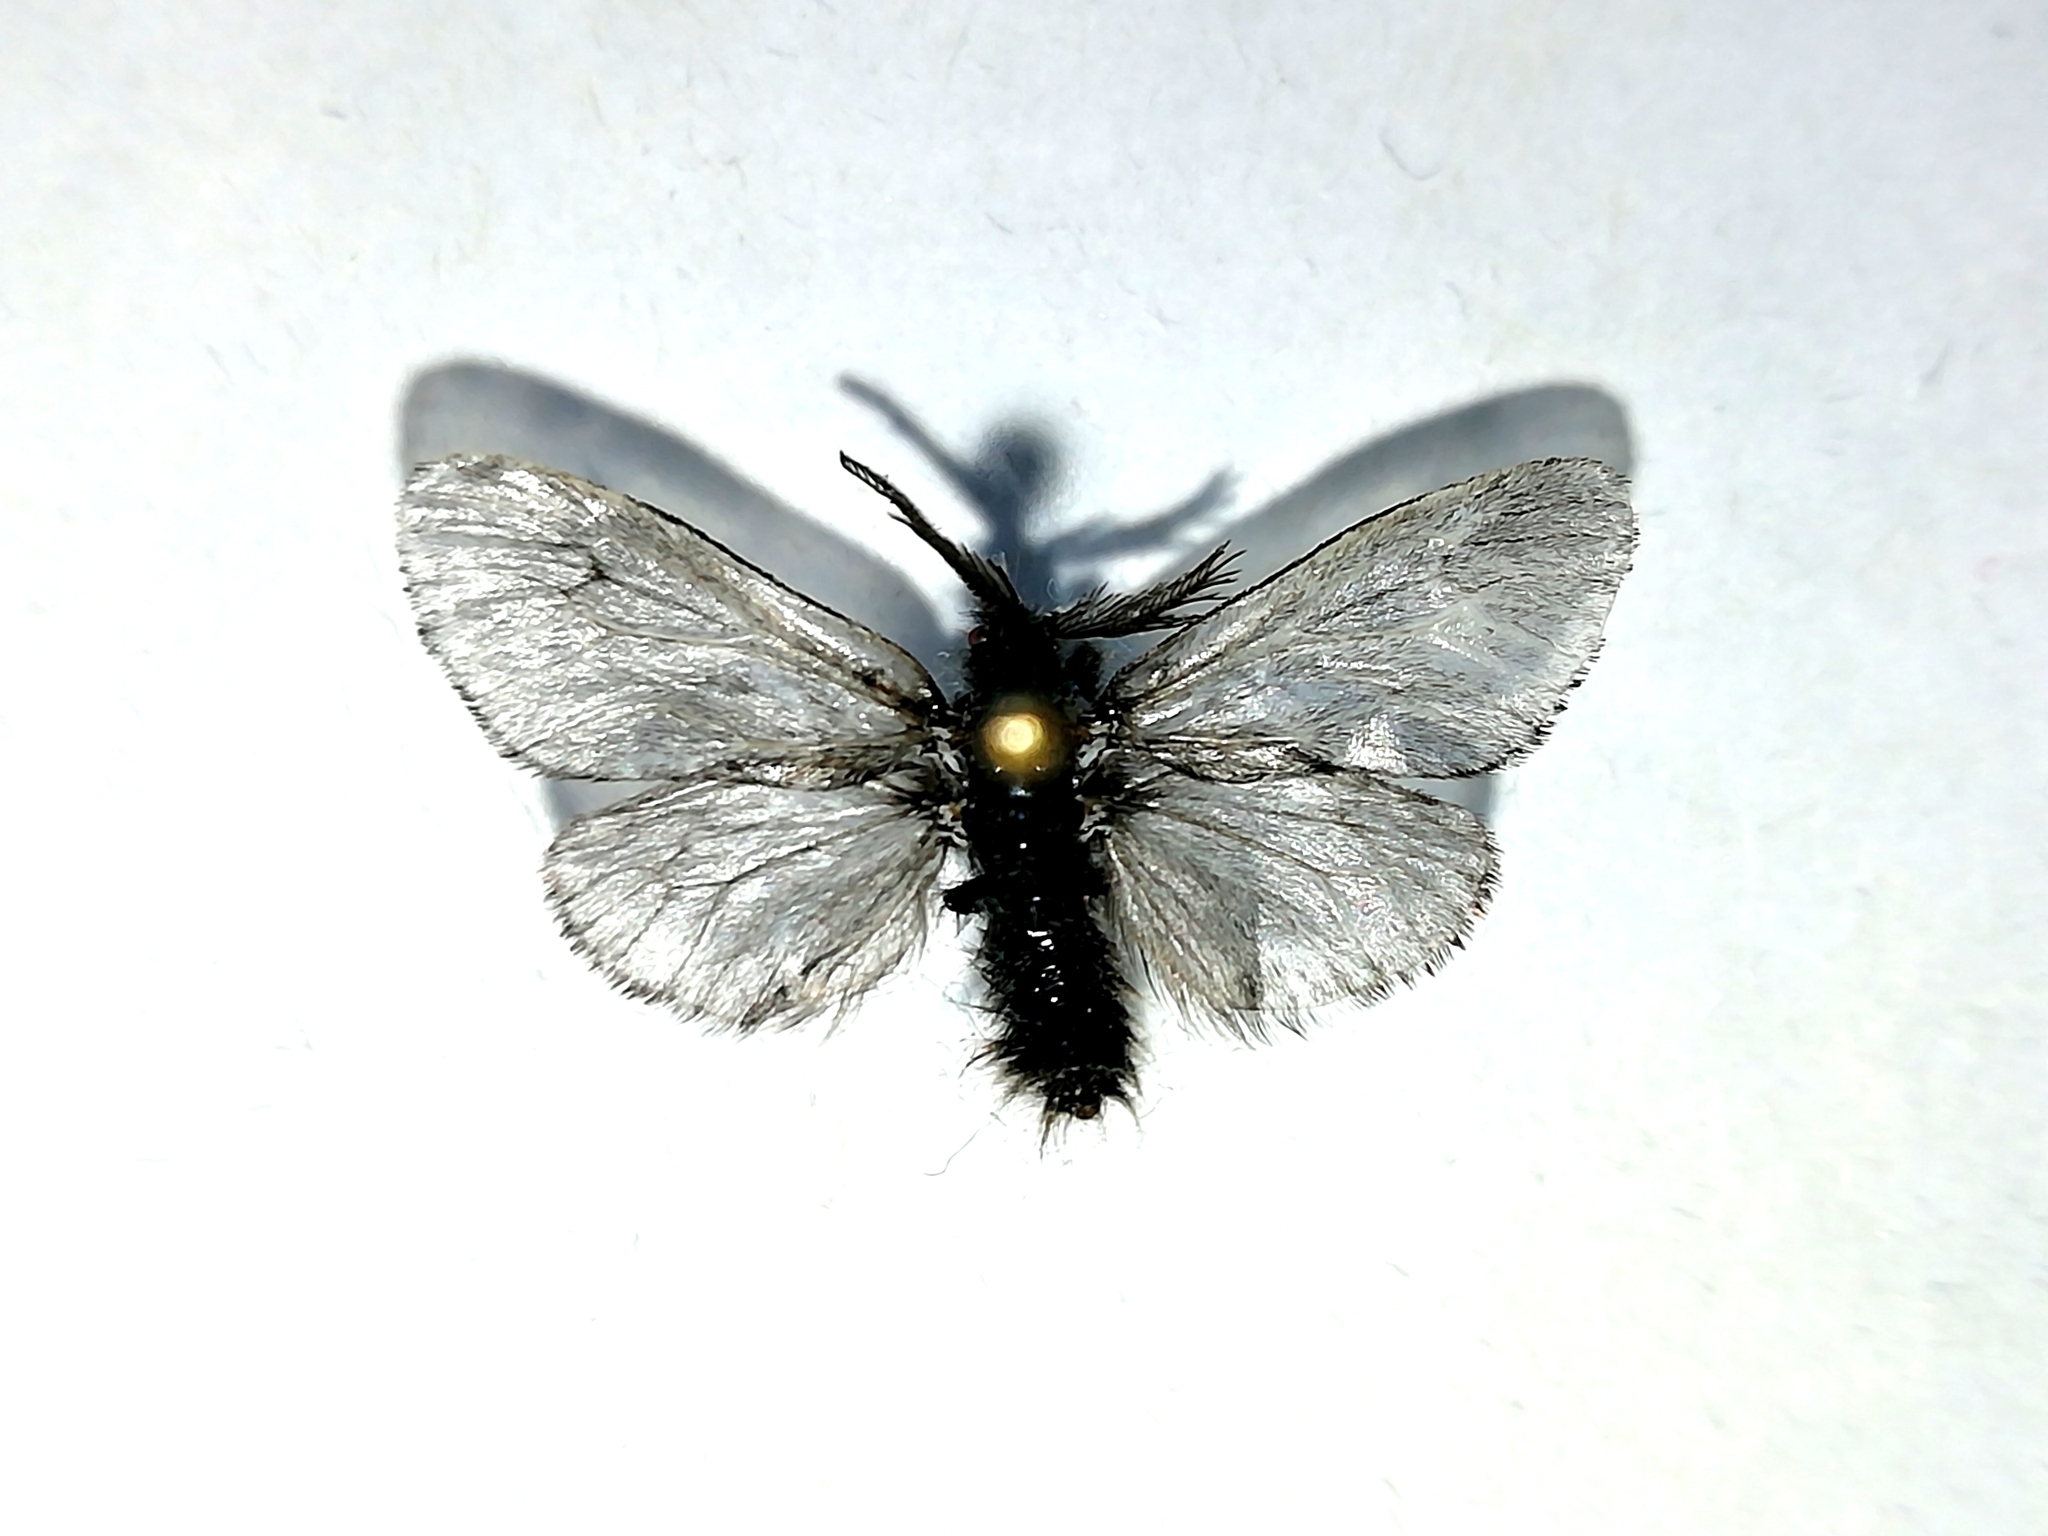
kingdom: Animalia
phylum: Arthropoda
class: Insecta
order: Lepidoptera
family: Psychidae
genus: Canephora
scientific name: Canephora hirsuta
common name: Hairy sweep
